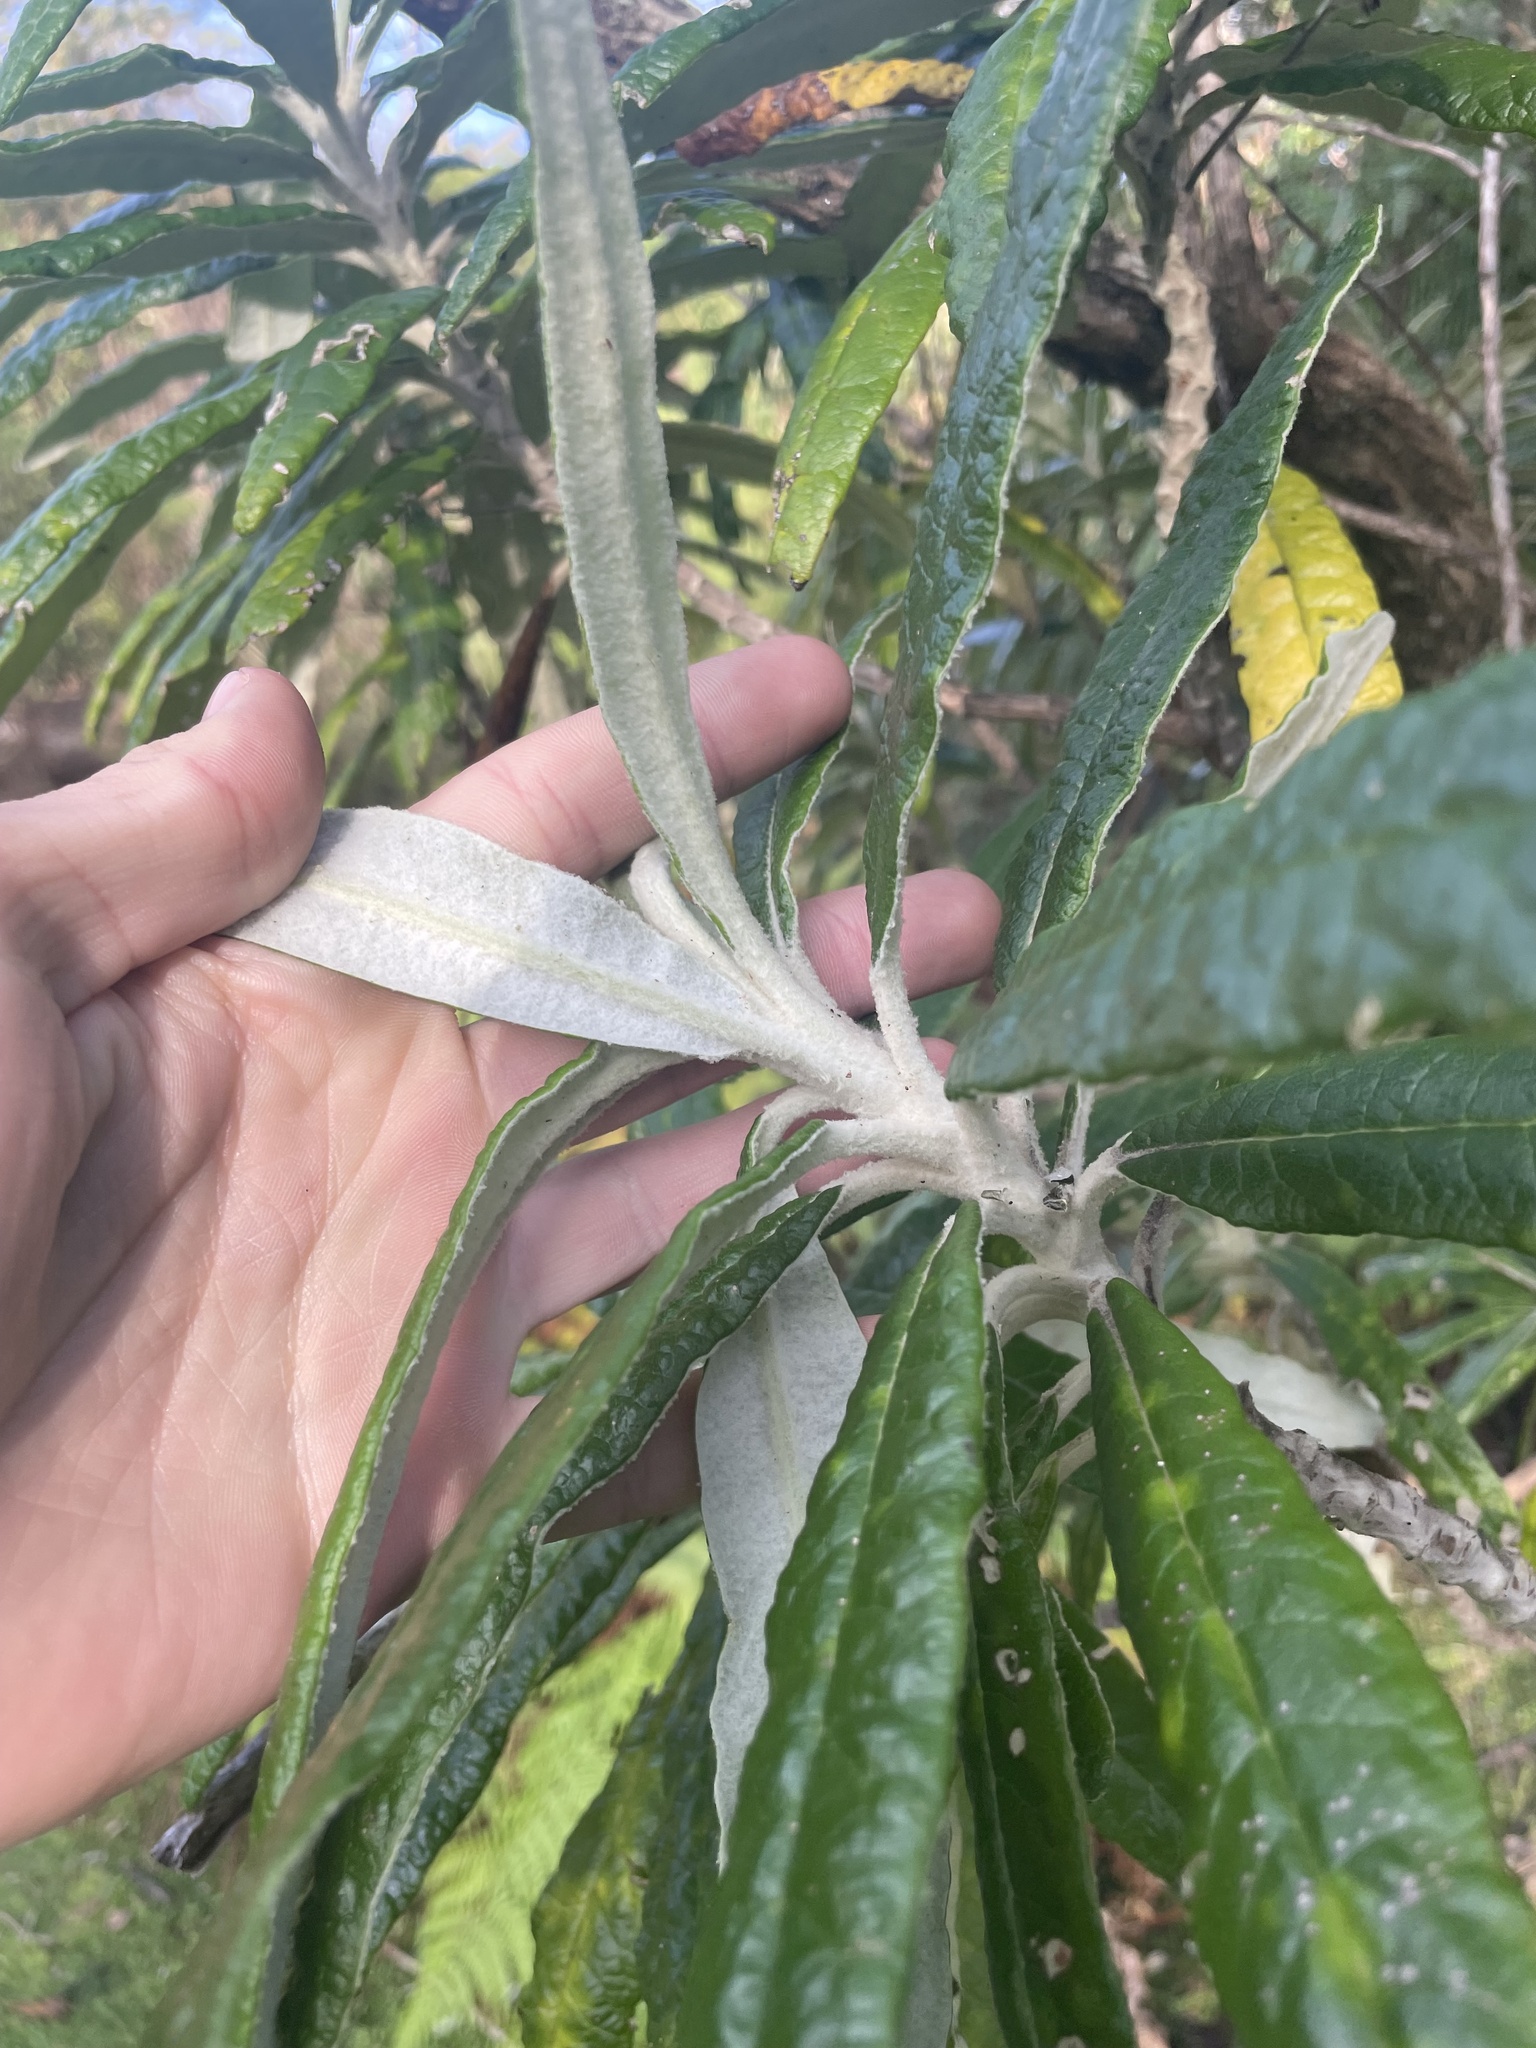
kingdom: Plantae
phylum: Tracheophyta
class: Magnoliopsida
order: Asterales
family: Asteraceae
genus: Bedfordia
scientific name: Bedfordia arborescens
